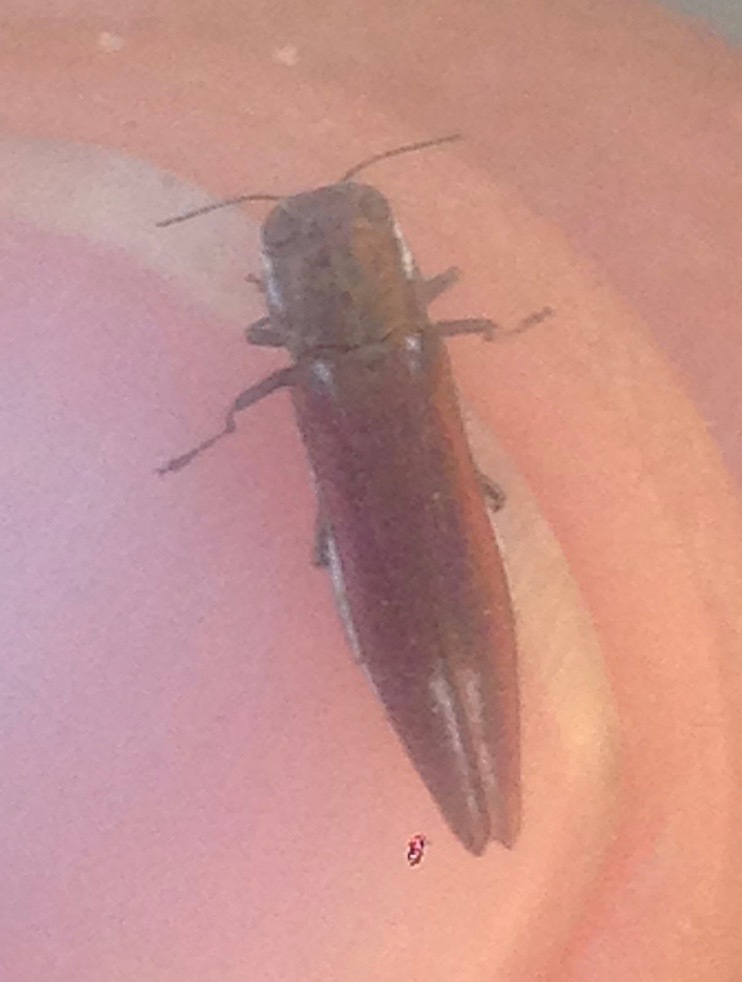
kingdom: Animalia
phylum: Arthropoda
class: Insecta
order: Coleoptera
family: Buprestidae
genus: Agrilus
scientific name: Agrilus quadriguttatus
